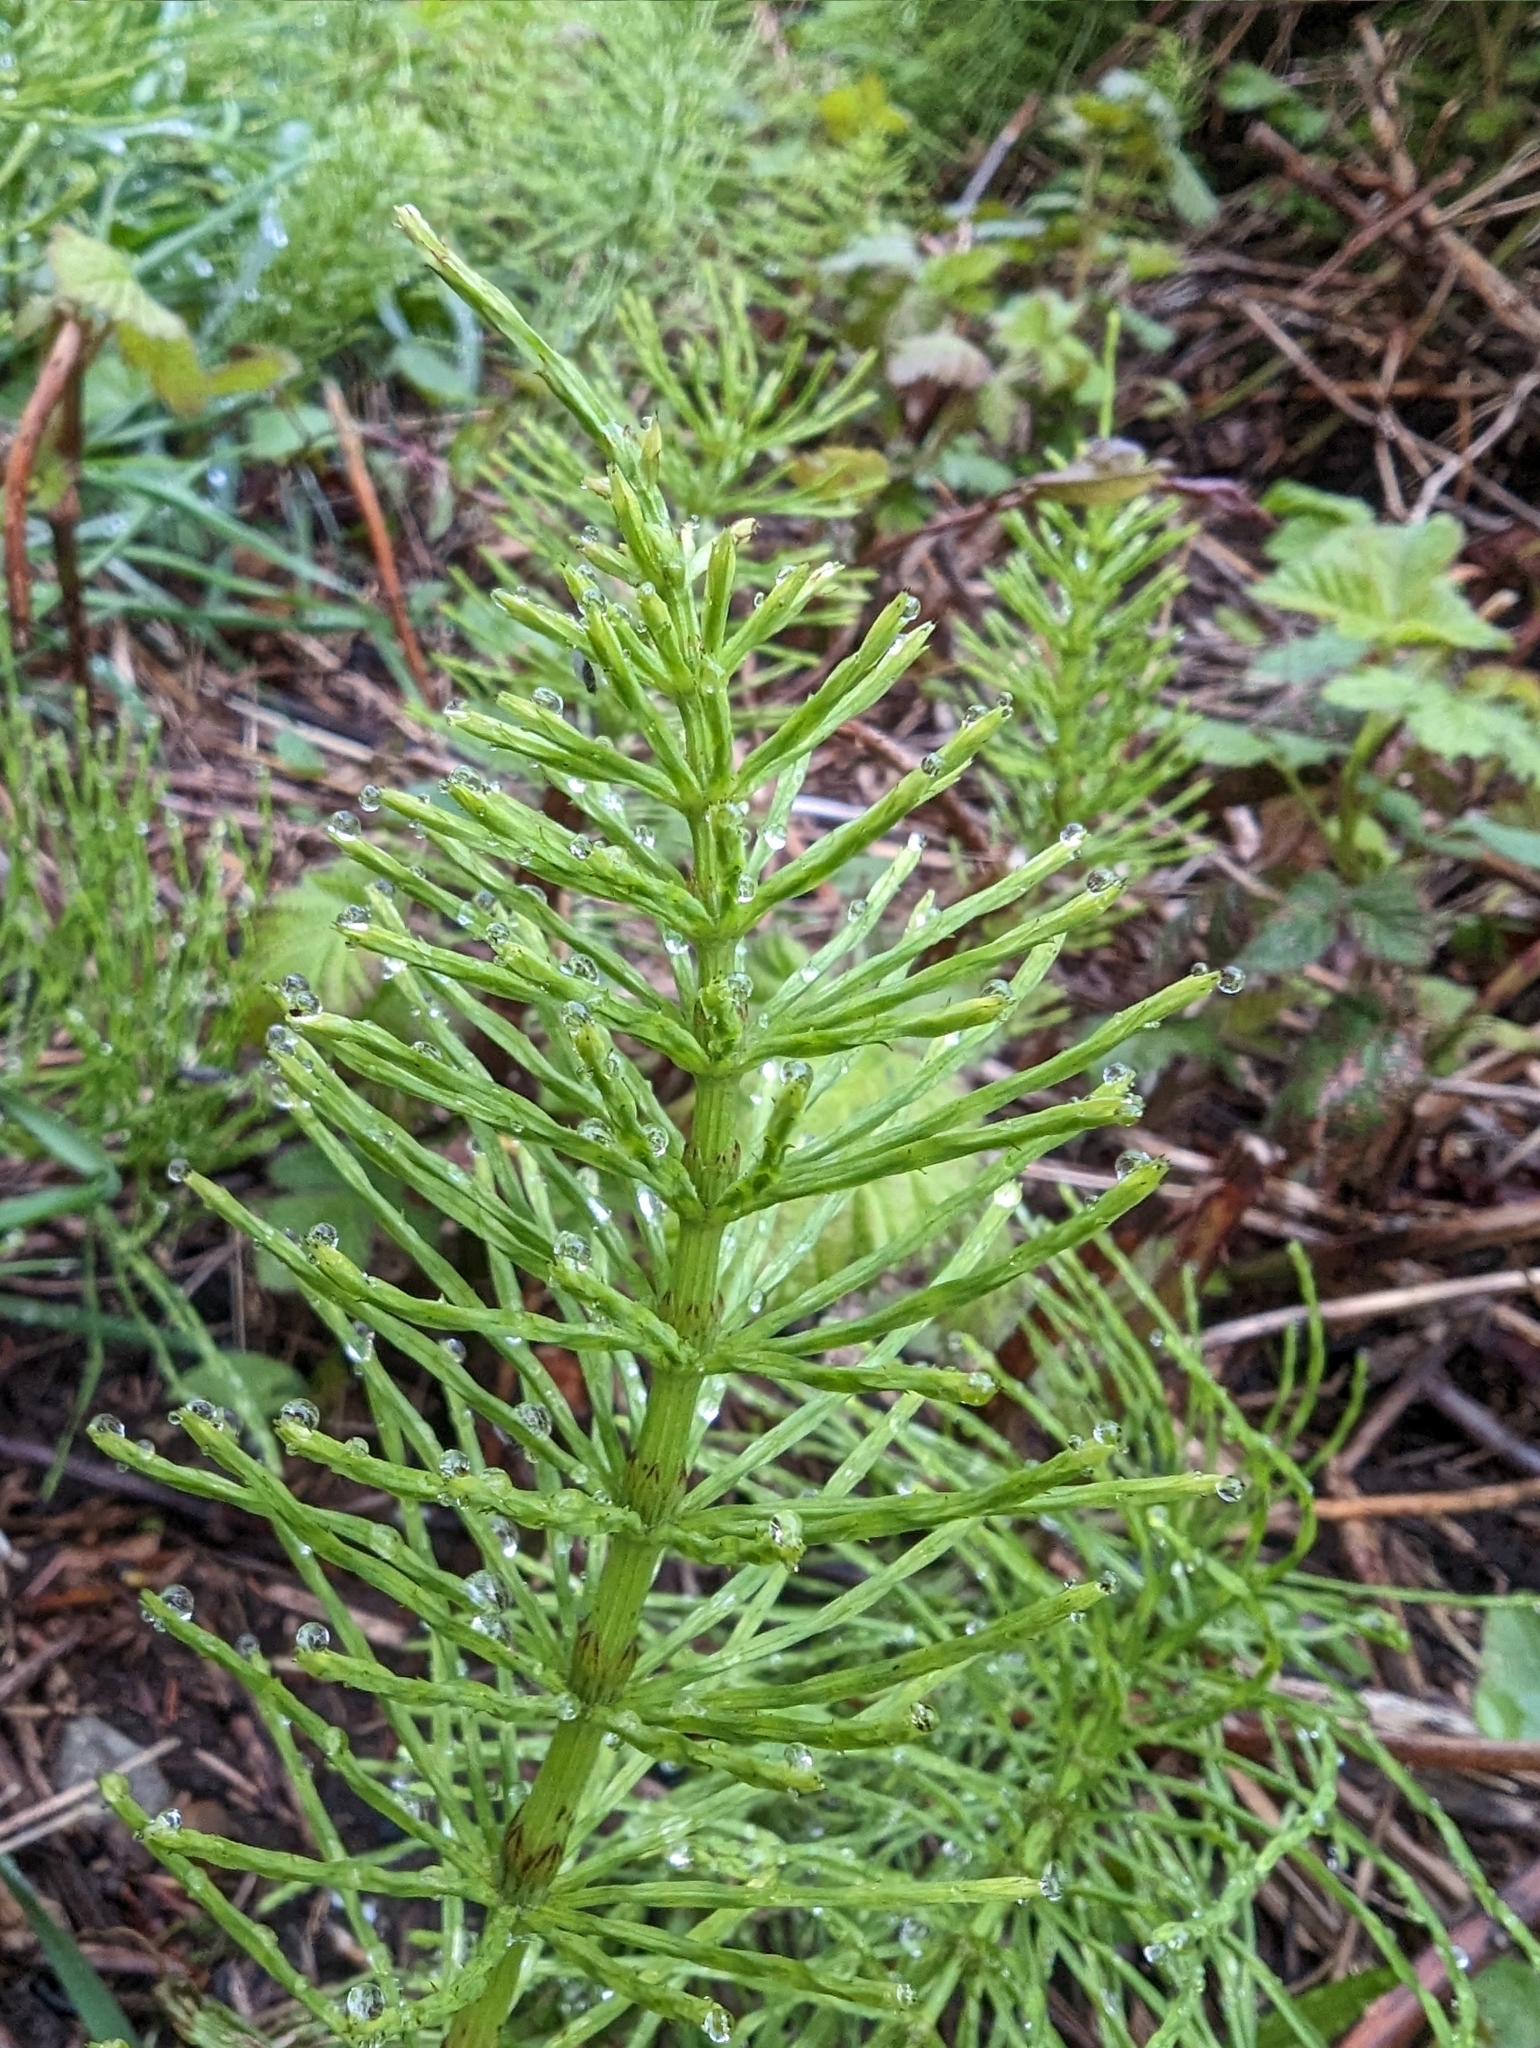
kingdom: Plantae
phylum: Tracheophyta
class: Polypodiopsida
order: Equisetales
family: Equisetaceae
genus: Equisetum
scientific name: Equisetum arvense
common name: Field horsetail
